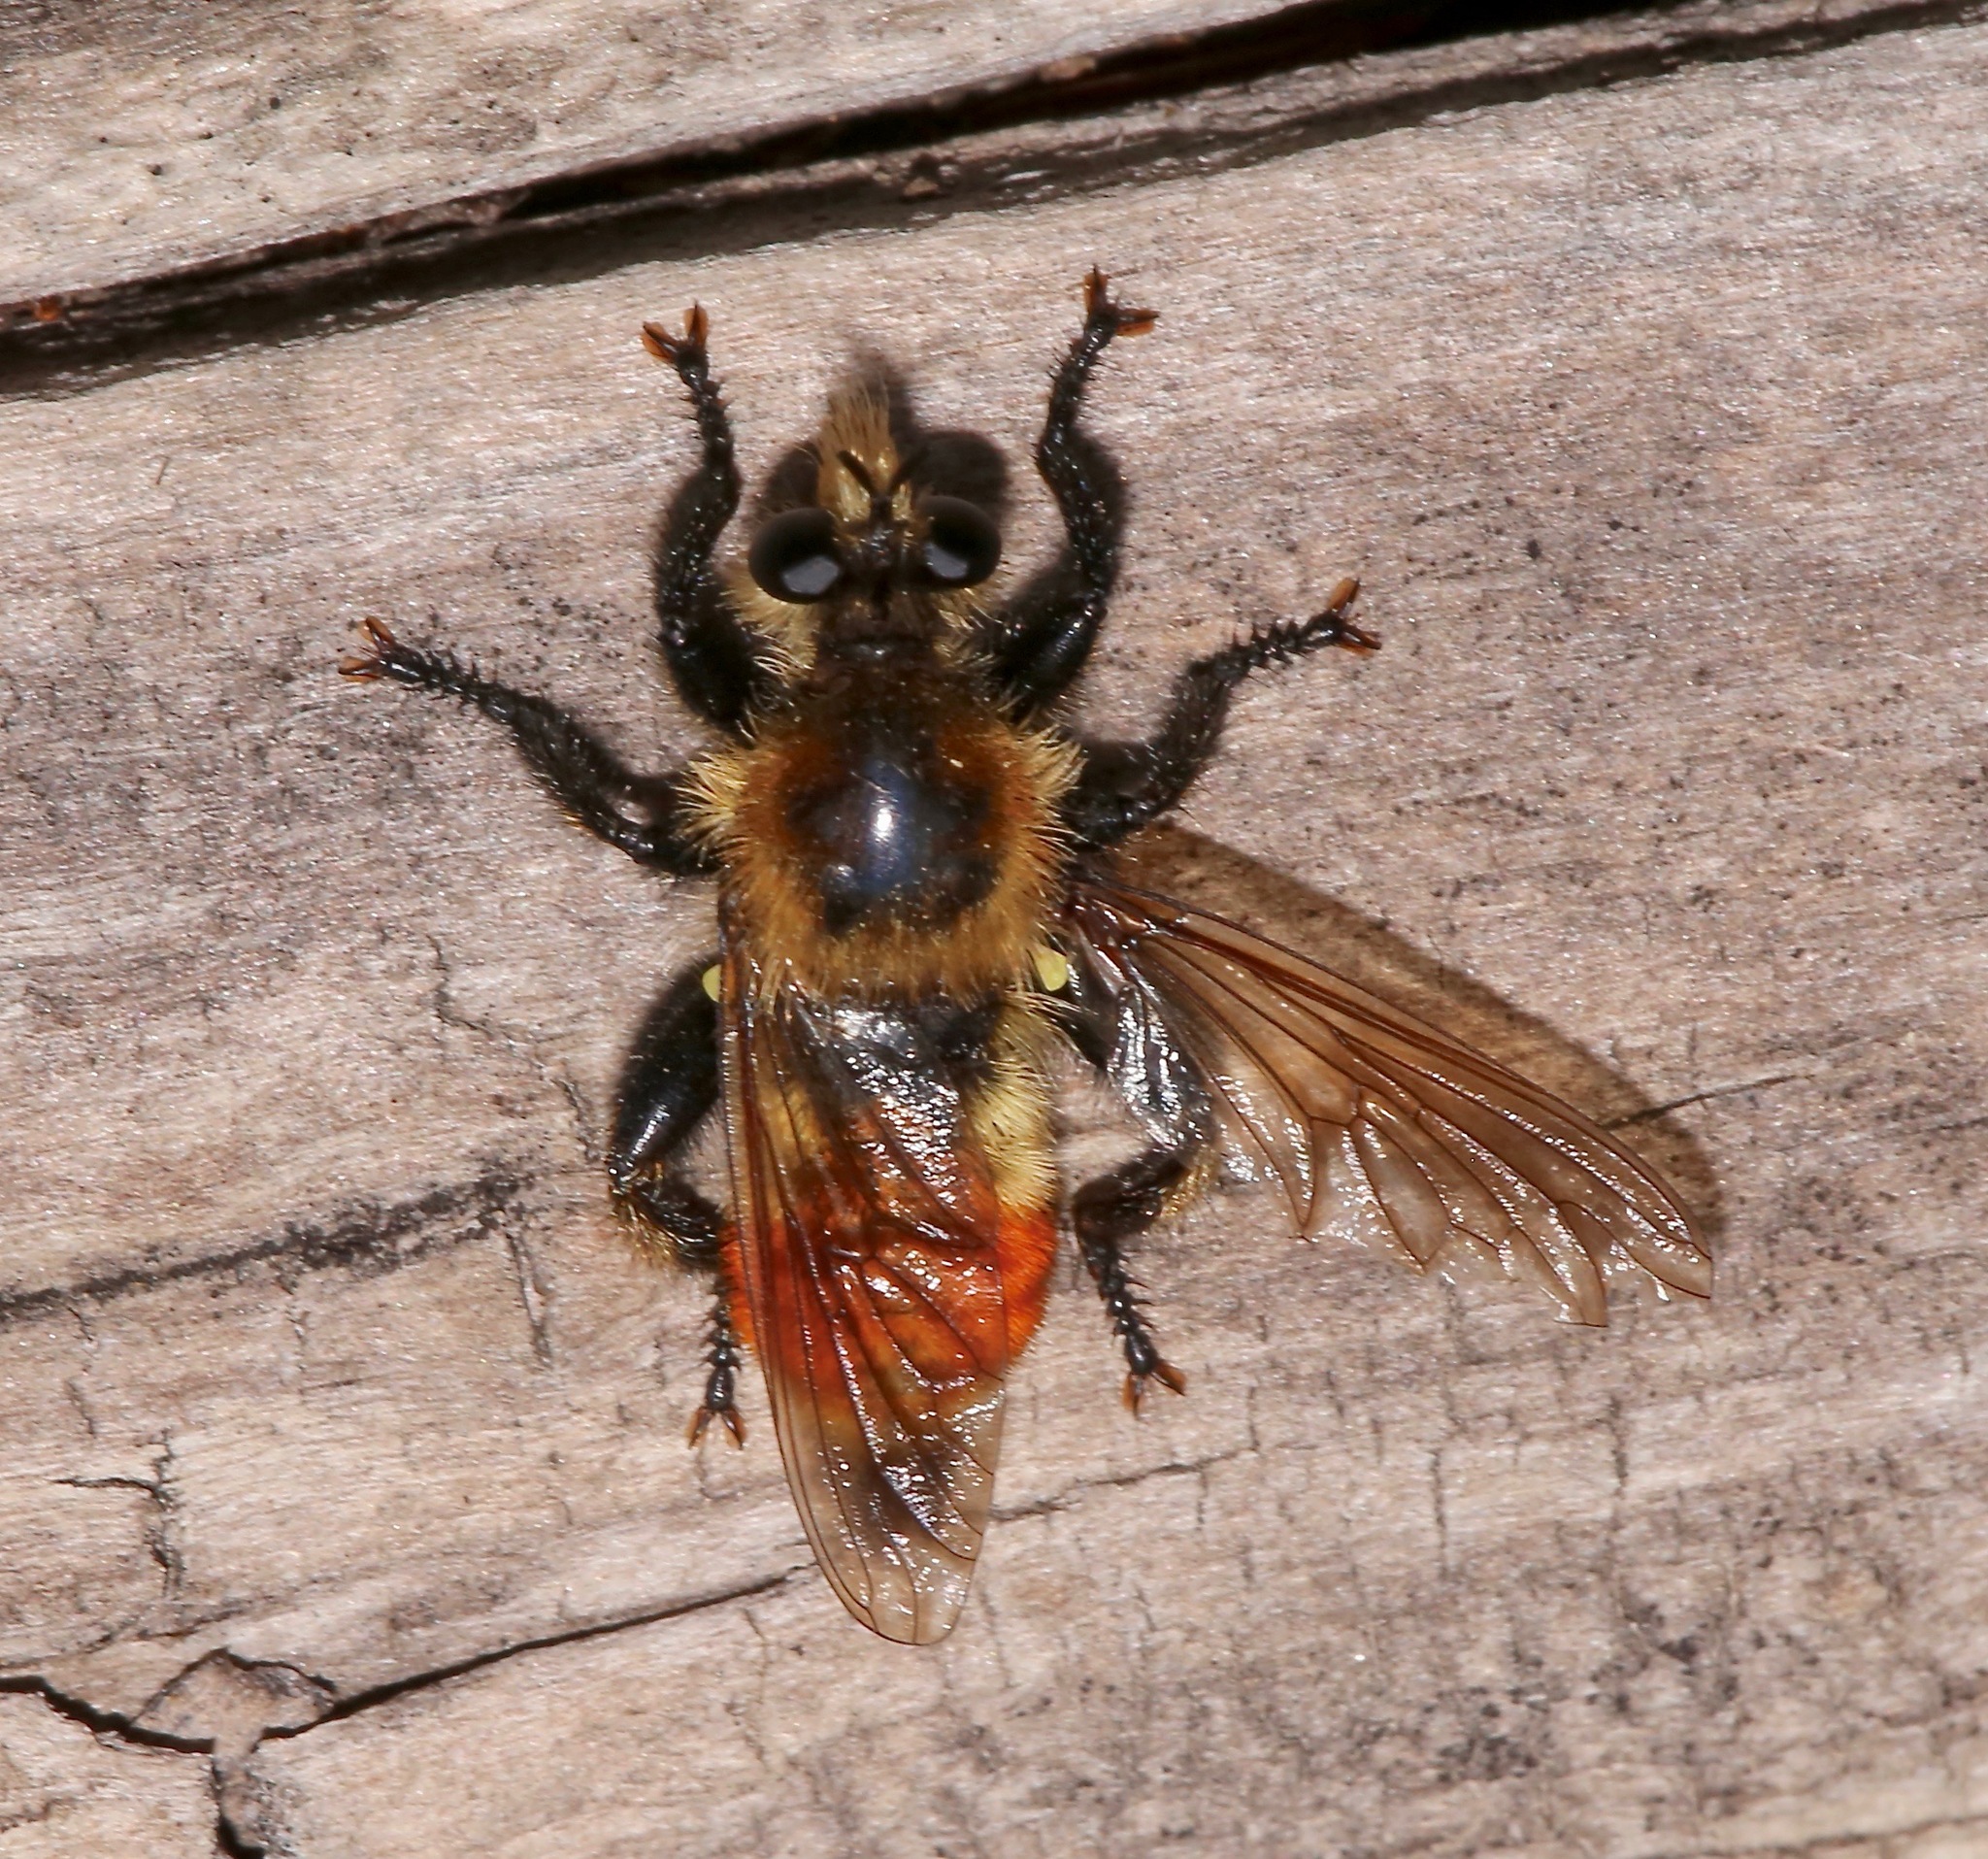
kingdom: Animalia
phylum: Arthropoda
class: Insecta
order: Diptera
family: Asilidae
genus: Laphria
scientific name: Laphria fernaldi
